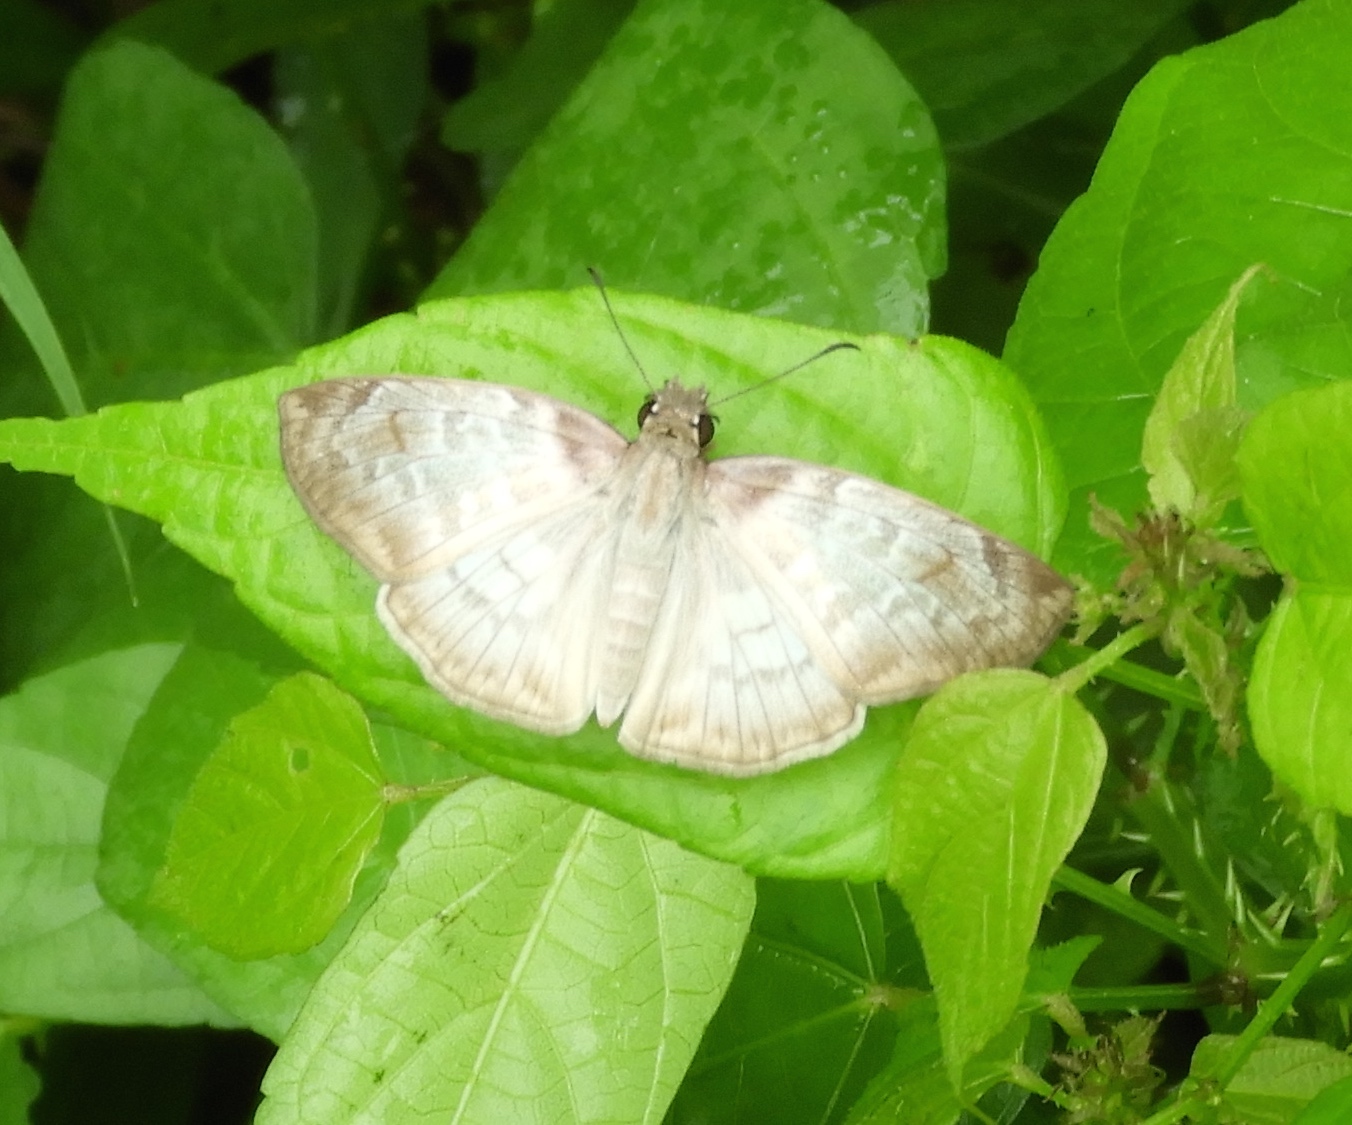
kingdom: Animalia
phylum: Arthropoda
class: Insecta
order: Lepidoptera
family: Hesperiidae
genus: Mylon
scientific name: Mylon pelopidas
